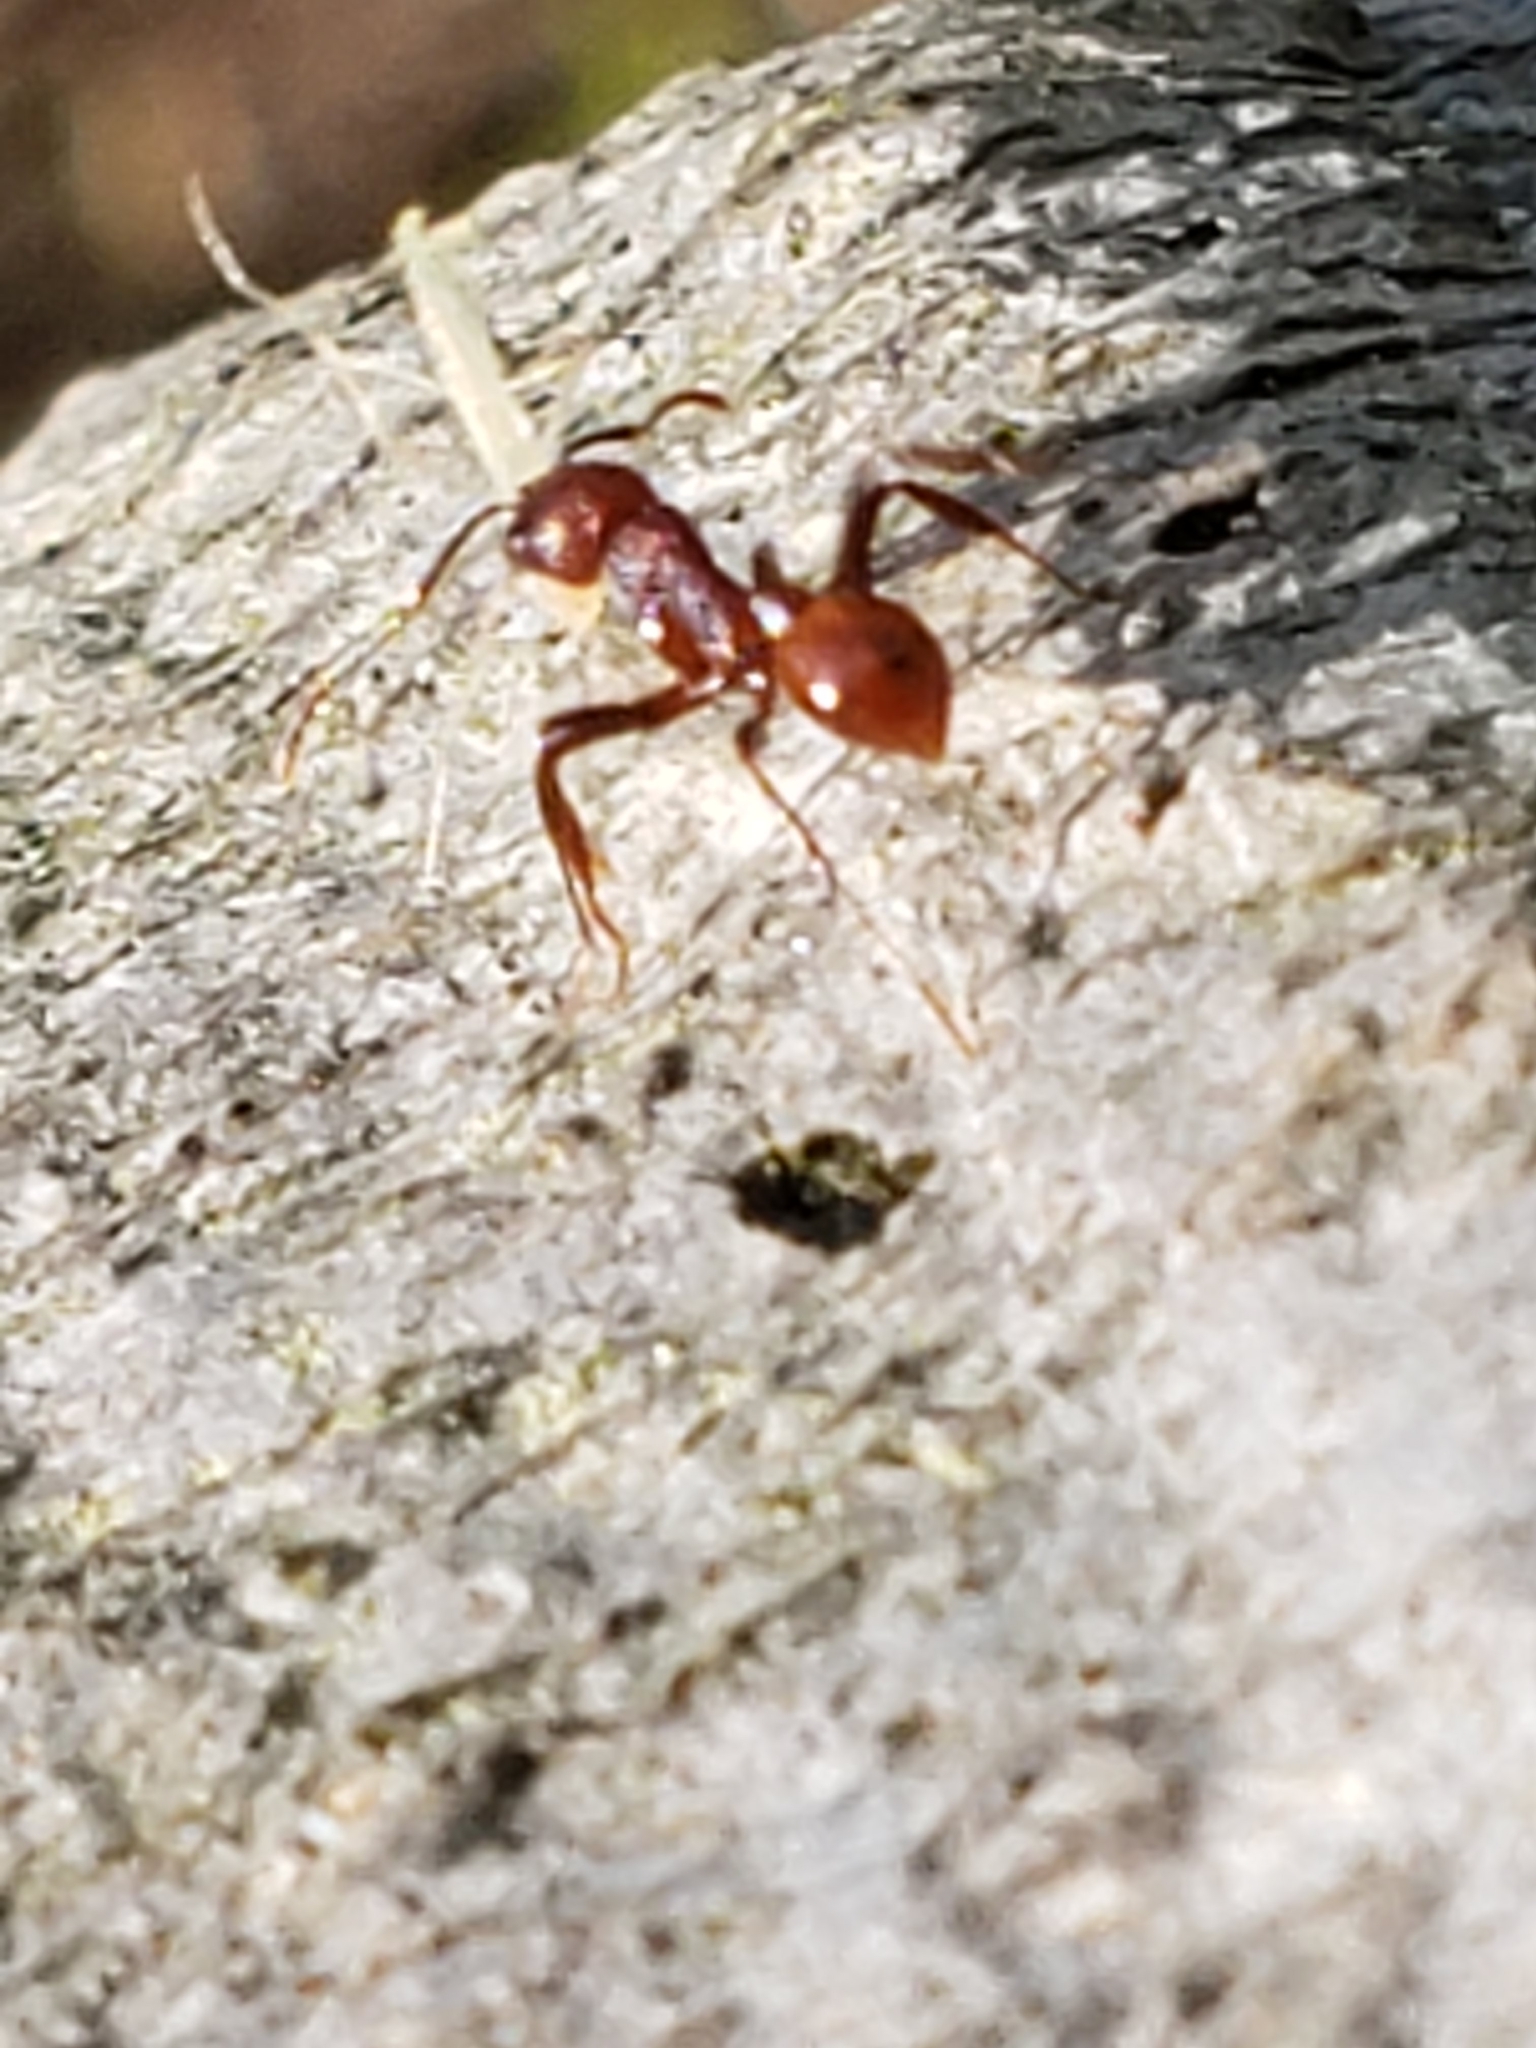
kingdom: Animalia
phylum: Arthropoda
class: Insecta
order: Hymenoptera
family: Formicidae
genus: Aphaenogaster
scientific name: Aphaenogaster tennesseensis
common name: Tennessee thread-waisted ant
